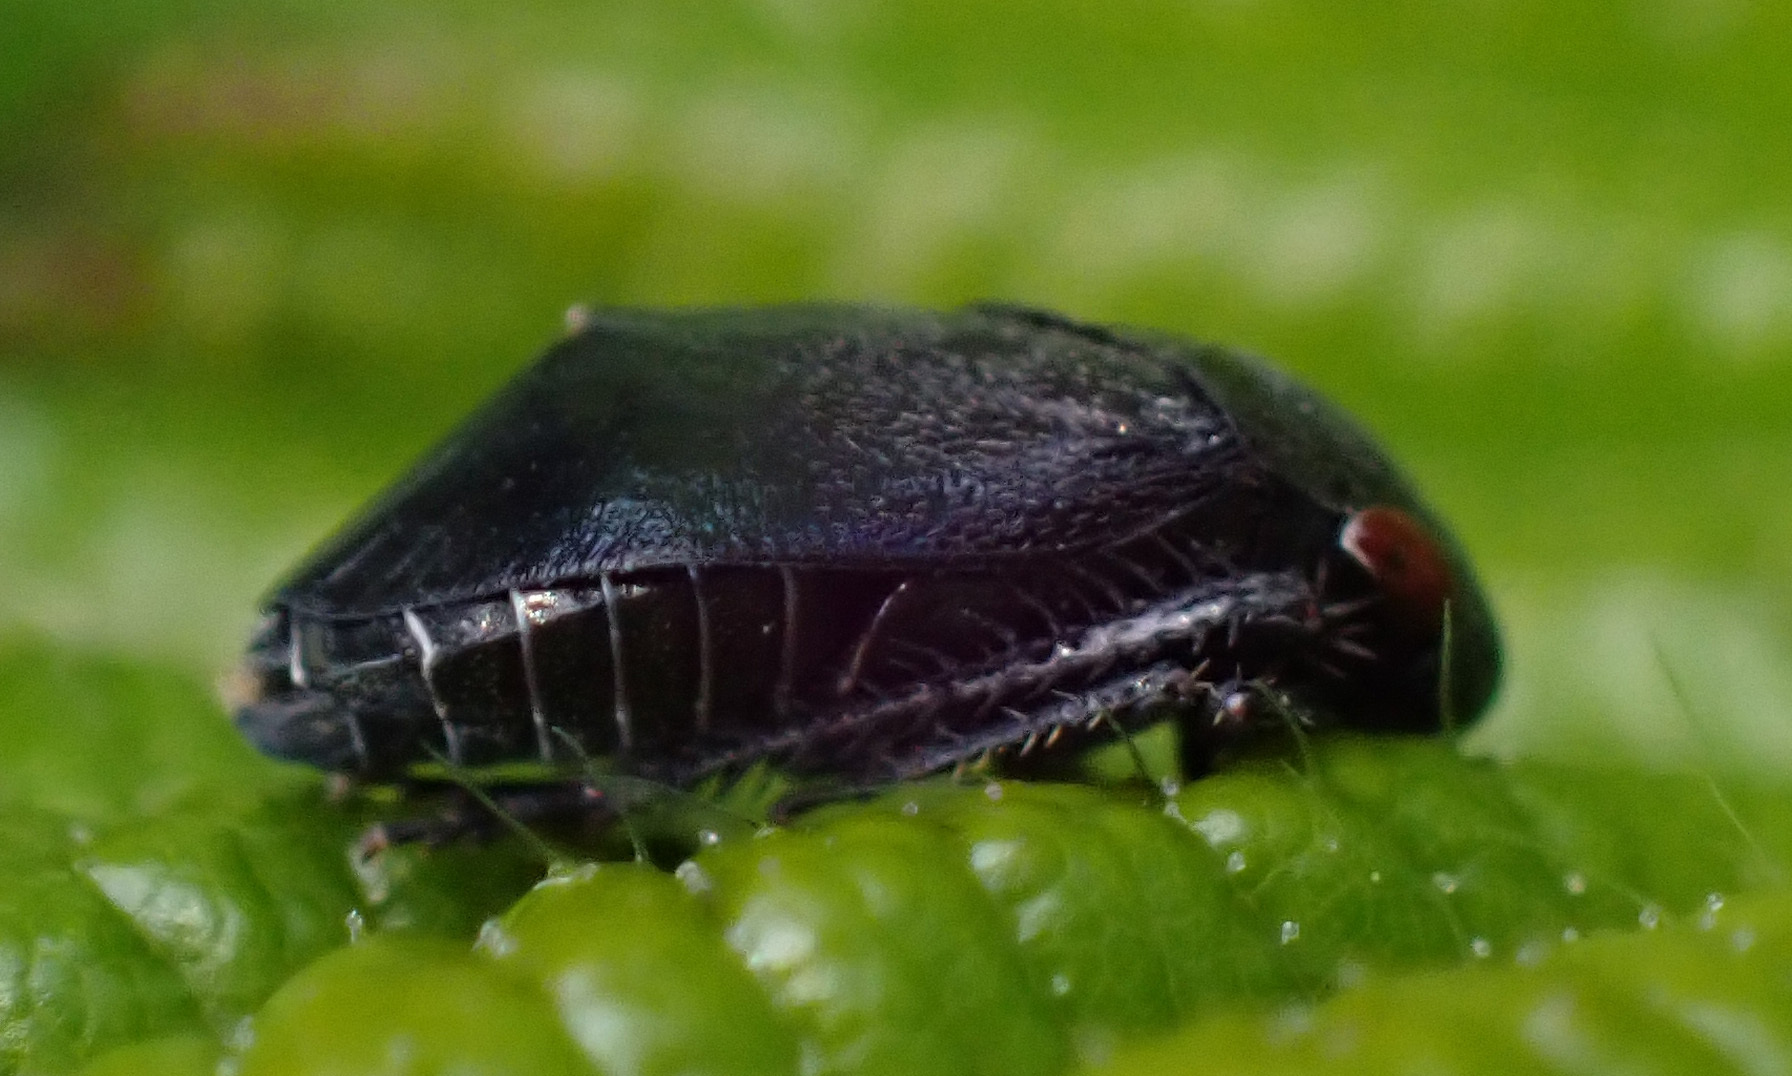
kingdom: Animalia
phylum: Arthropoda
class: Insecta
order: Hemiptera
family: Cicadellidae
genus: Penthimia
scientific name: Penthimia nigra
